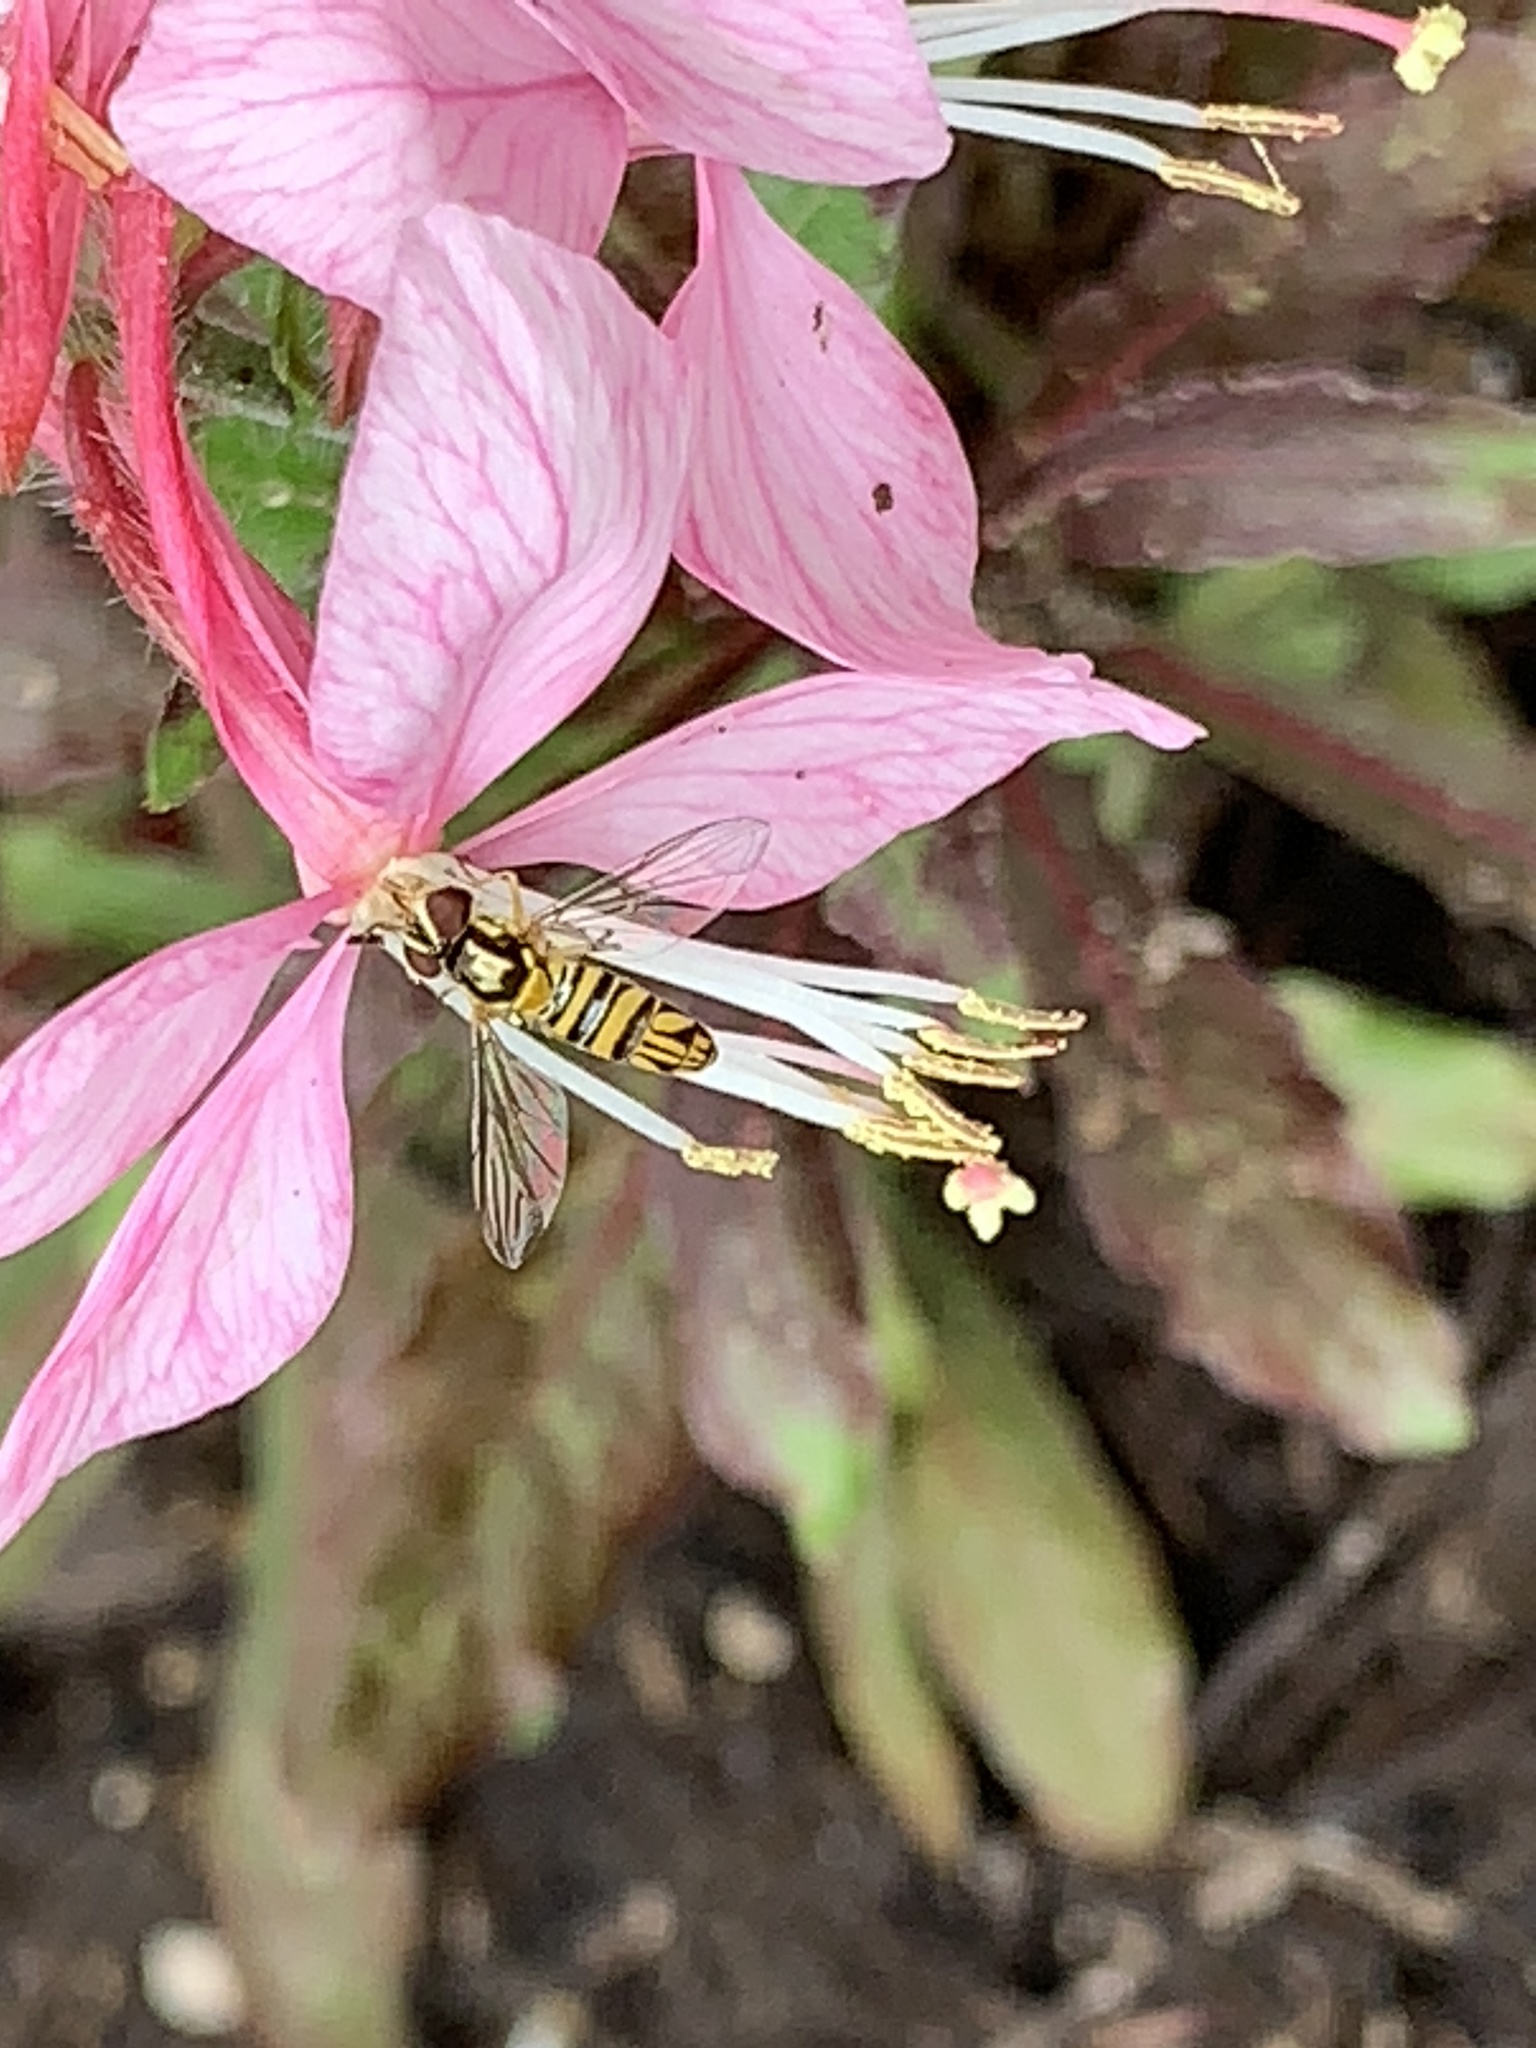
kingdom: Animalia
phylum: Arthropoda
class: Insecta
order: Diptera
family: Syrphidae
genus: Allograpta
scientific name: Allograpta obliqua
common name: Common oblique syrphid
